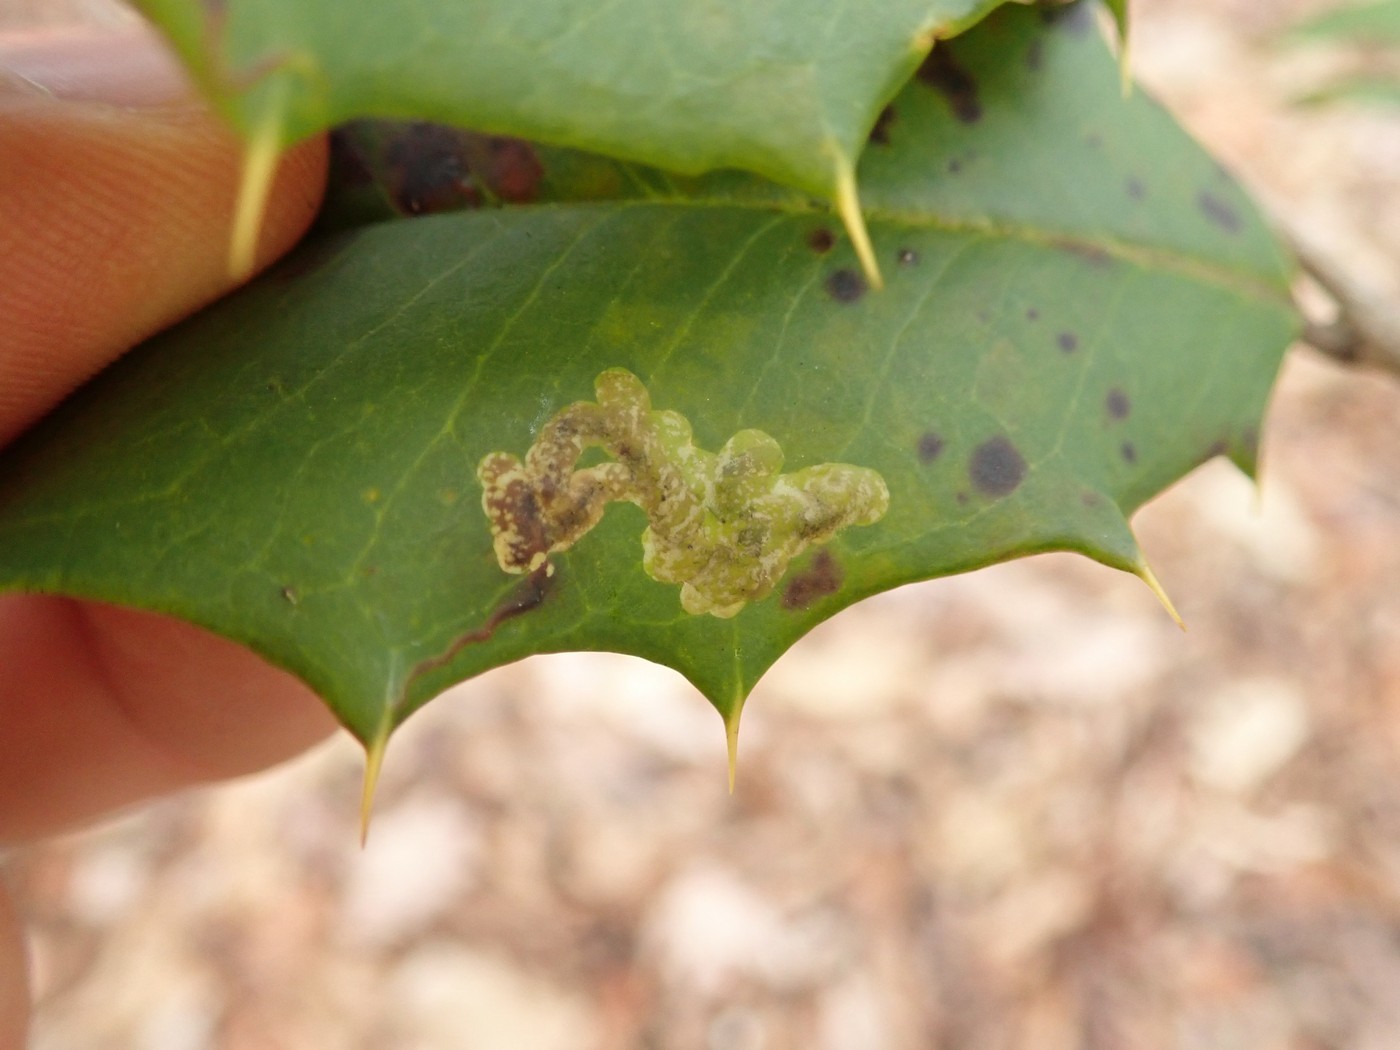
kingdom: Animalia
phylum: Arthropoda
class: Insecta
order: Diptera
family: Agromyzidae
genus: Phytomyza
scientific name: Phytomyza ilicicola
